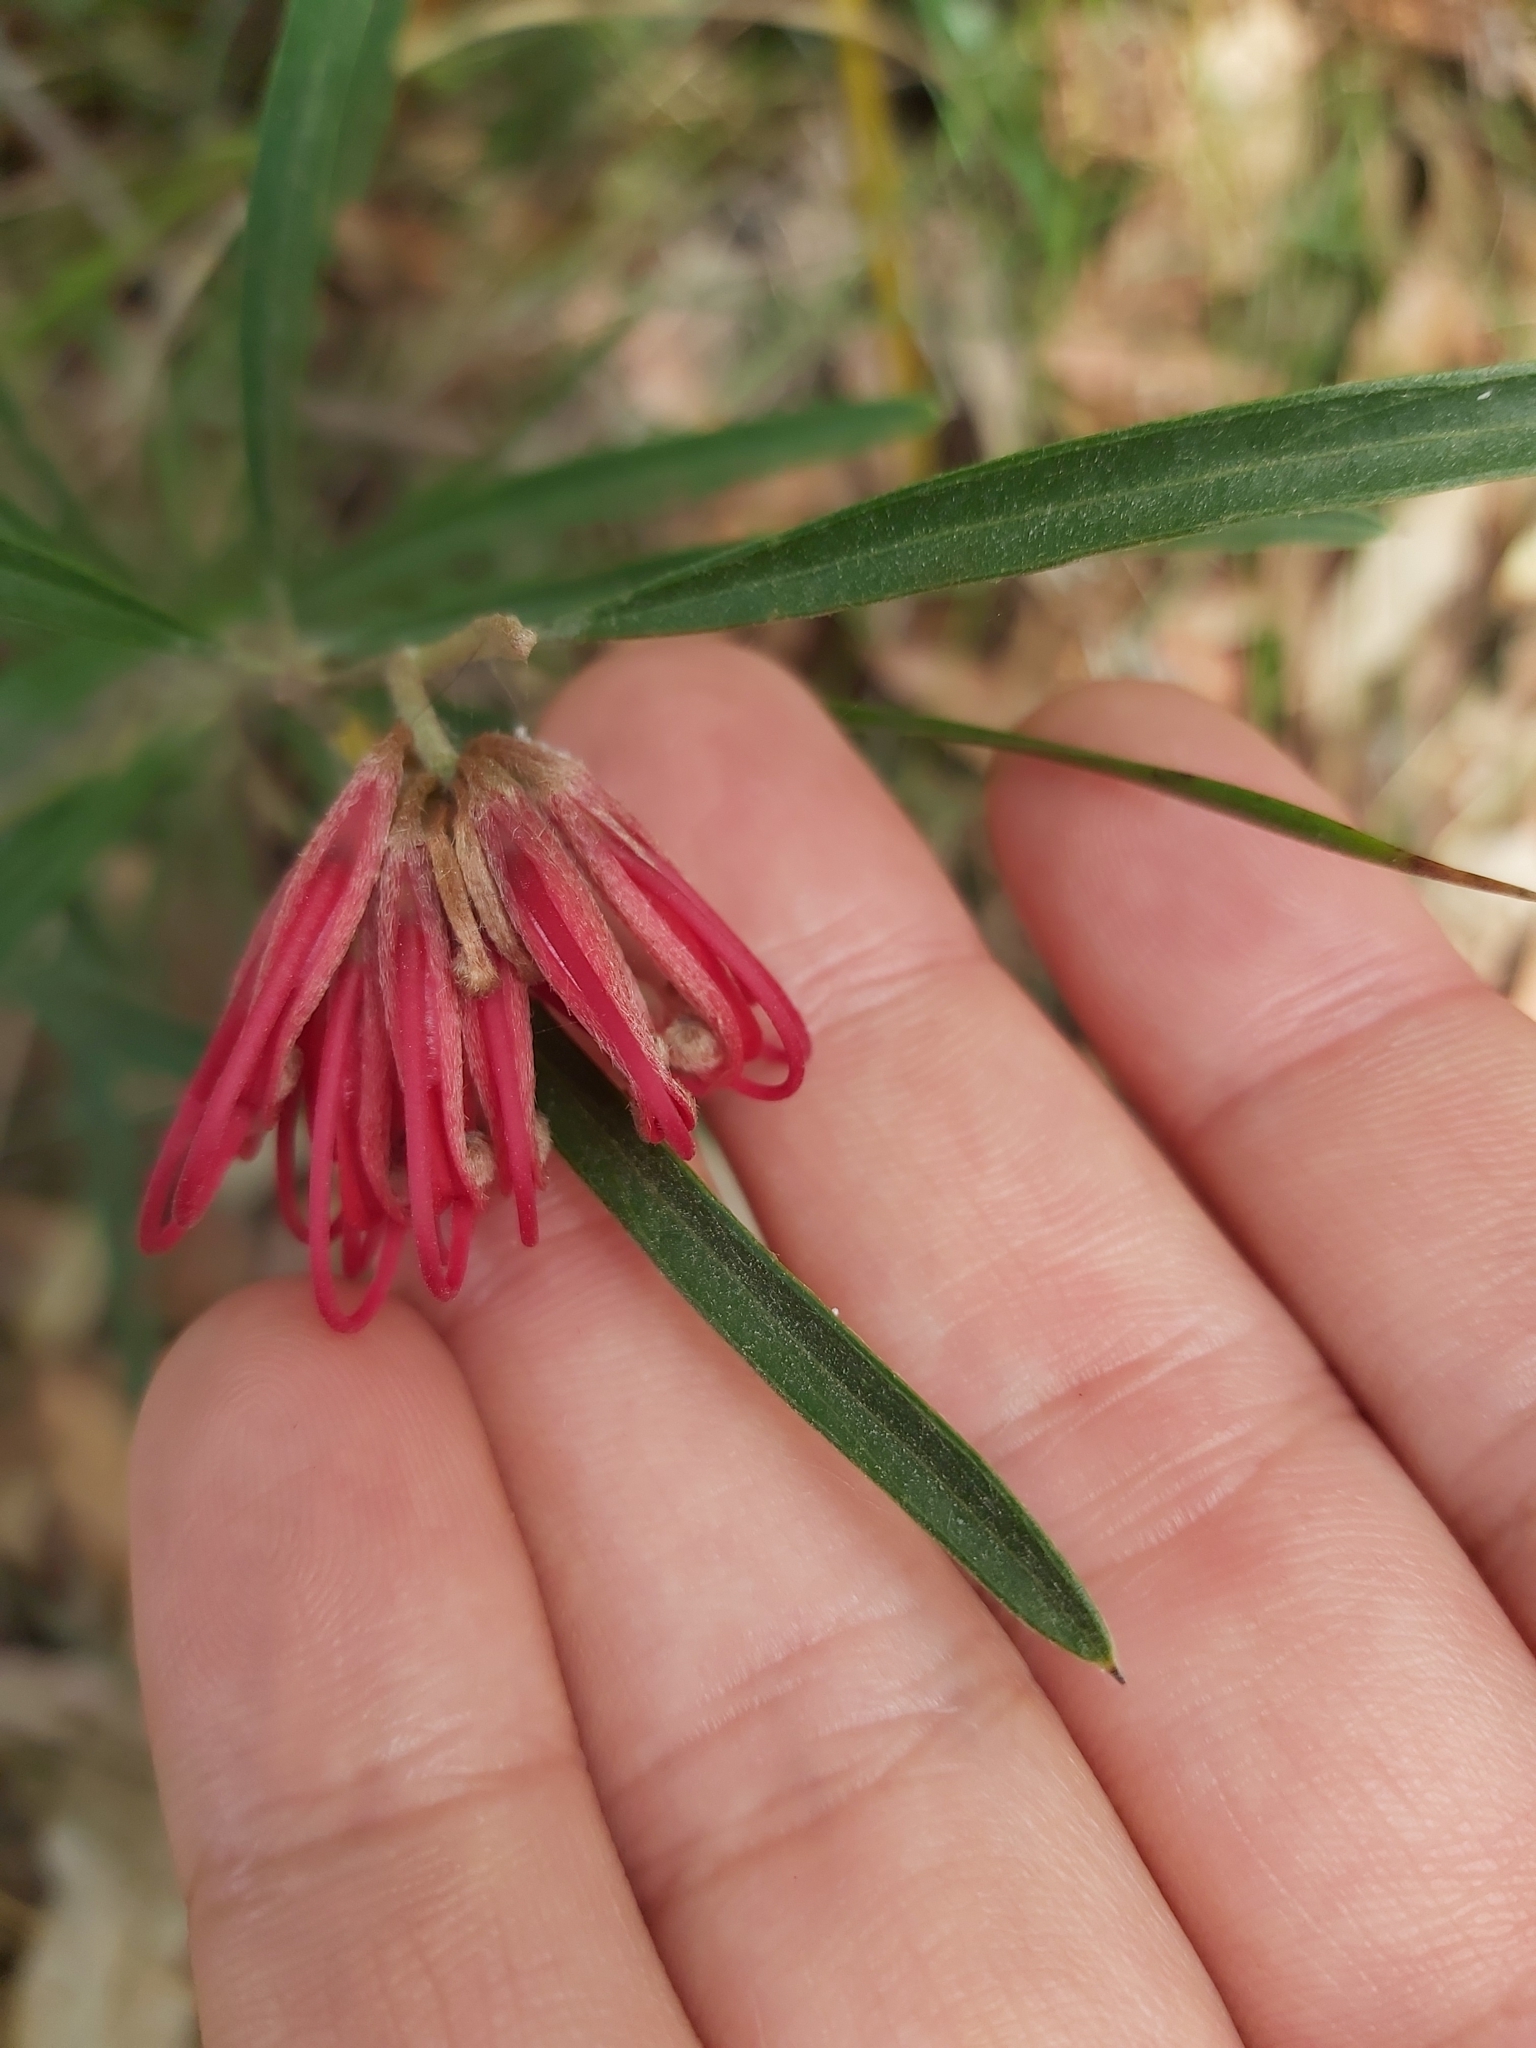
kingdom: Plantae
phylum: Tracheophyta
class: Magnoliopsida
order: Proteales
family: Proteaceae
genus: Grevillea
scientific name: Grevillea oleoides
